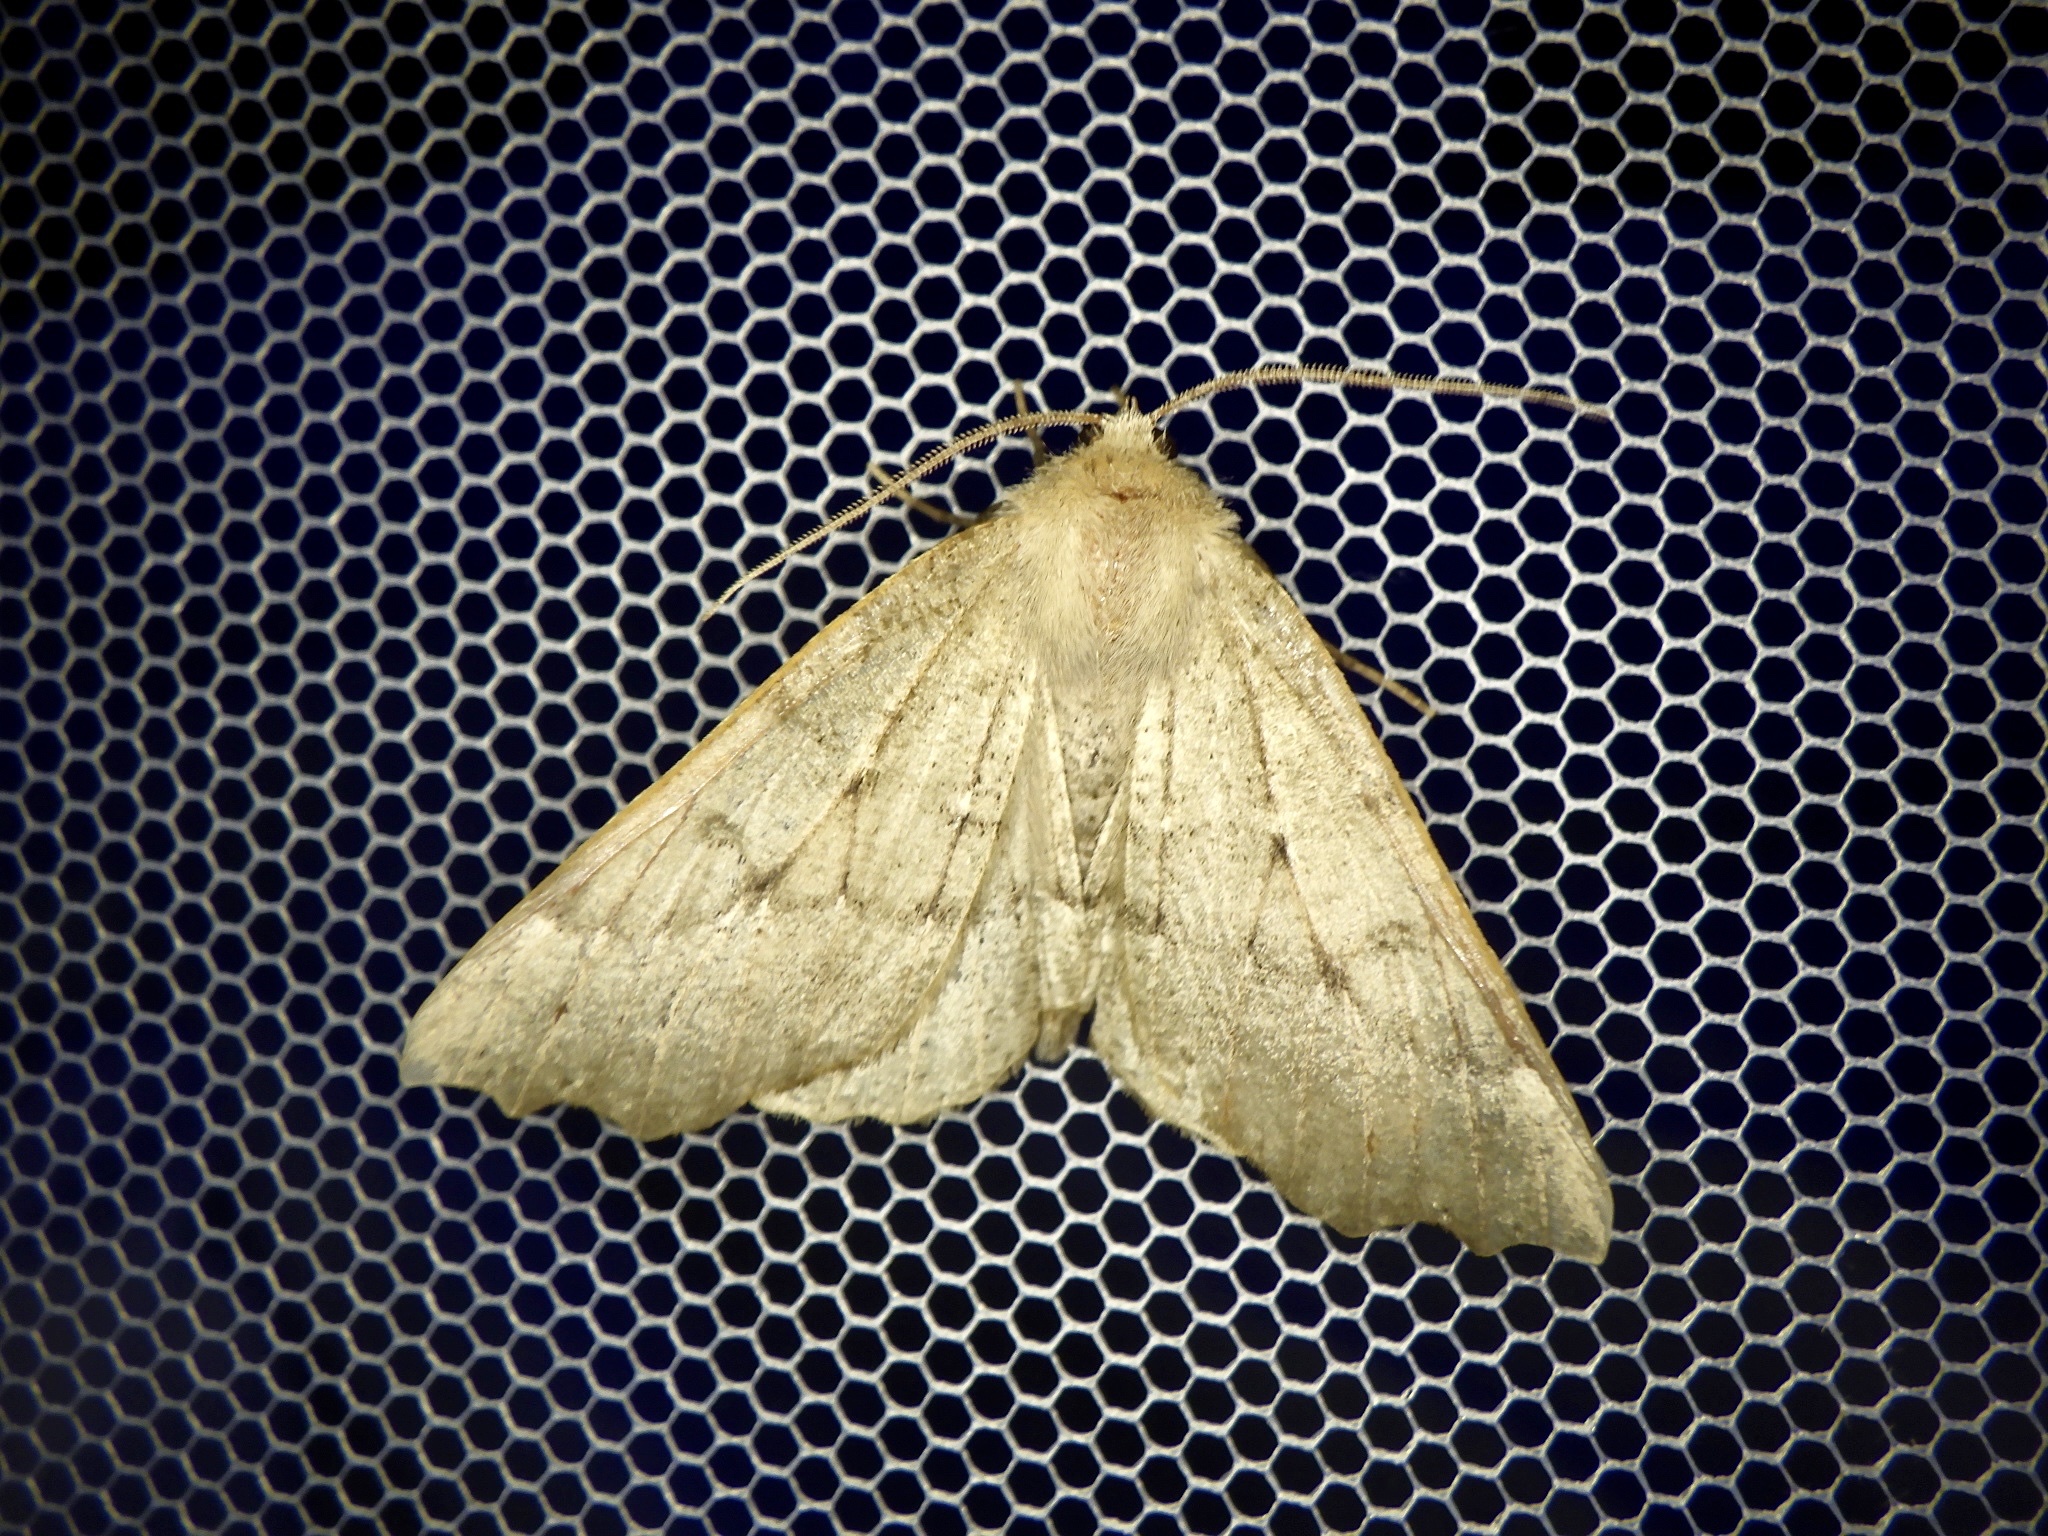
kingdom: Animalia
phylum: Arthropoda
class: Insecta
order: Lepidoptera
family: Geometridae
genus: Odontopera
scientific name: Odontopera bidentata
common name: Scalloped hazel
